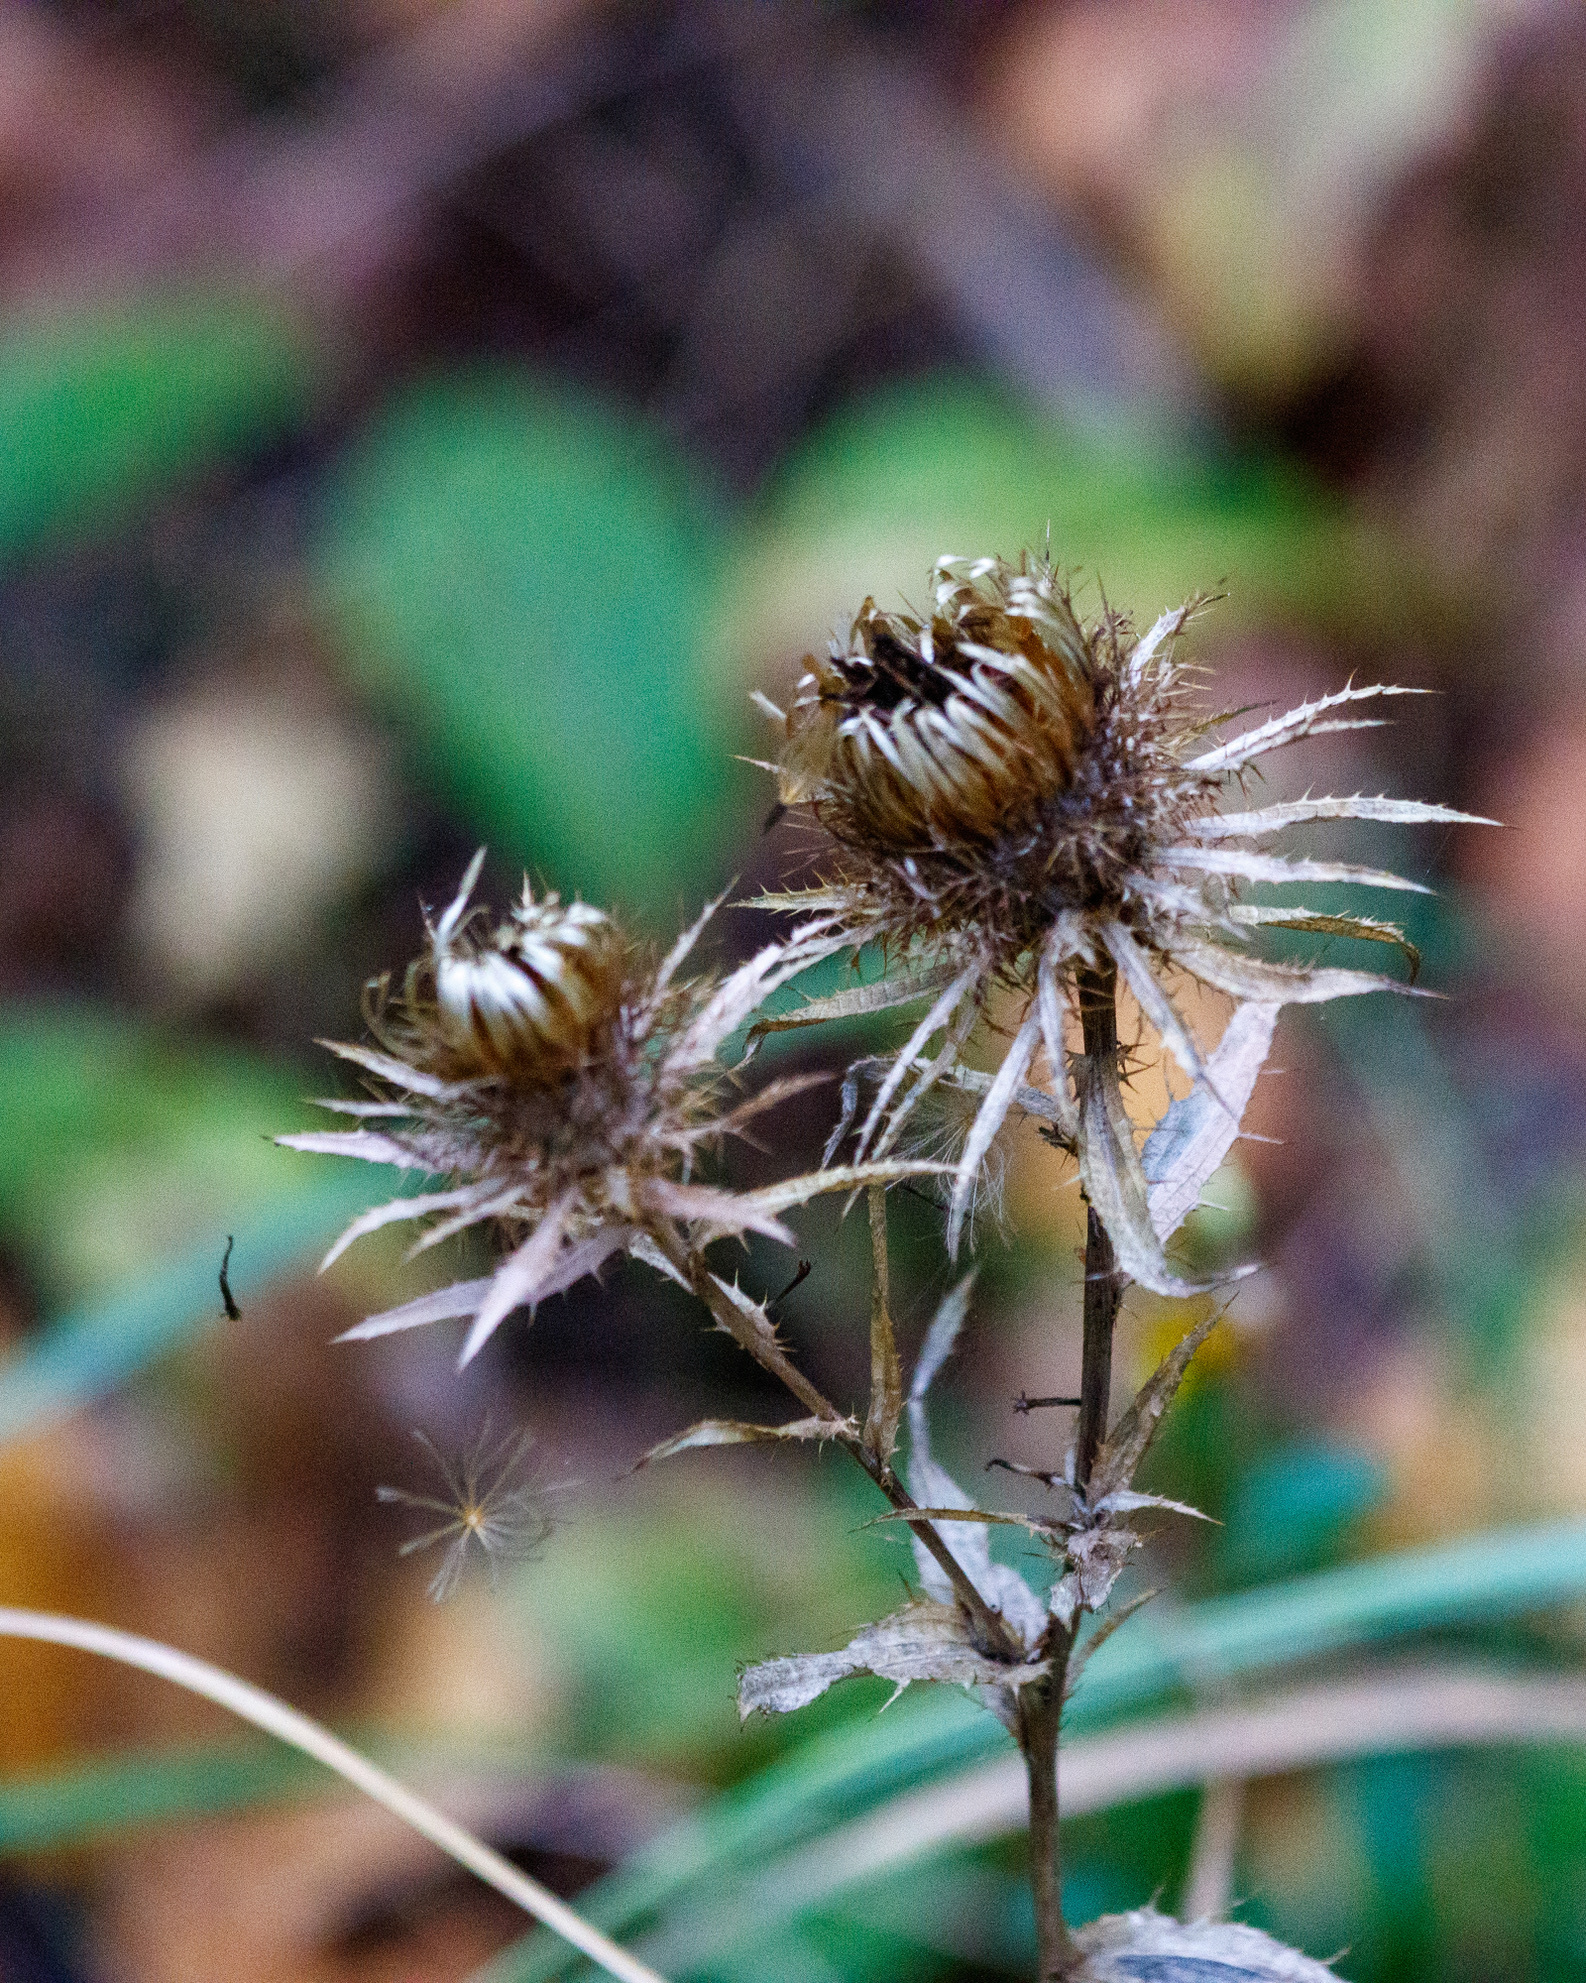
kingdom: Plantae
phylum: Tracheophyta
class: Magnoliopsida
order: Asterales
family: Asteraceae
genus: Carlina
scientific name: Carlina biebersteinii
